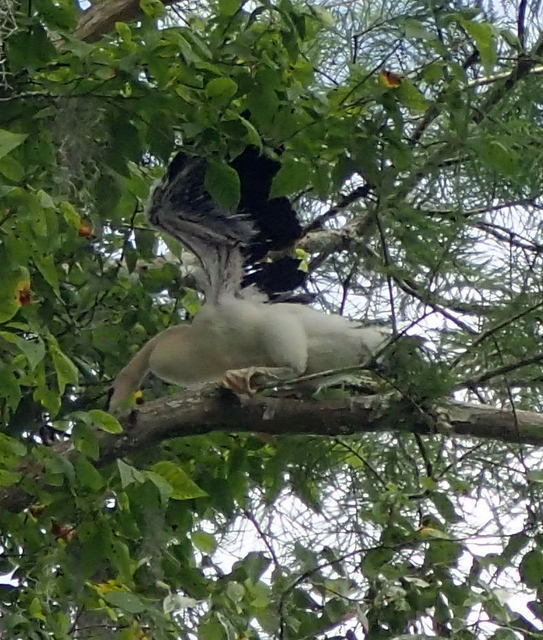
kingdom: Animalia
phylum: Chordata
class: Aves
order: Suliformes
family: Anhingidae
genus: Anhinga
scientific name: Anhinga anhinga
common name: Anhinga
